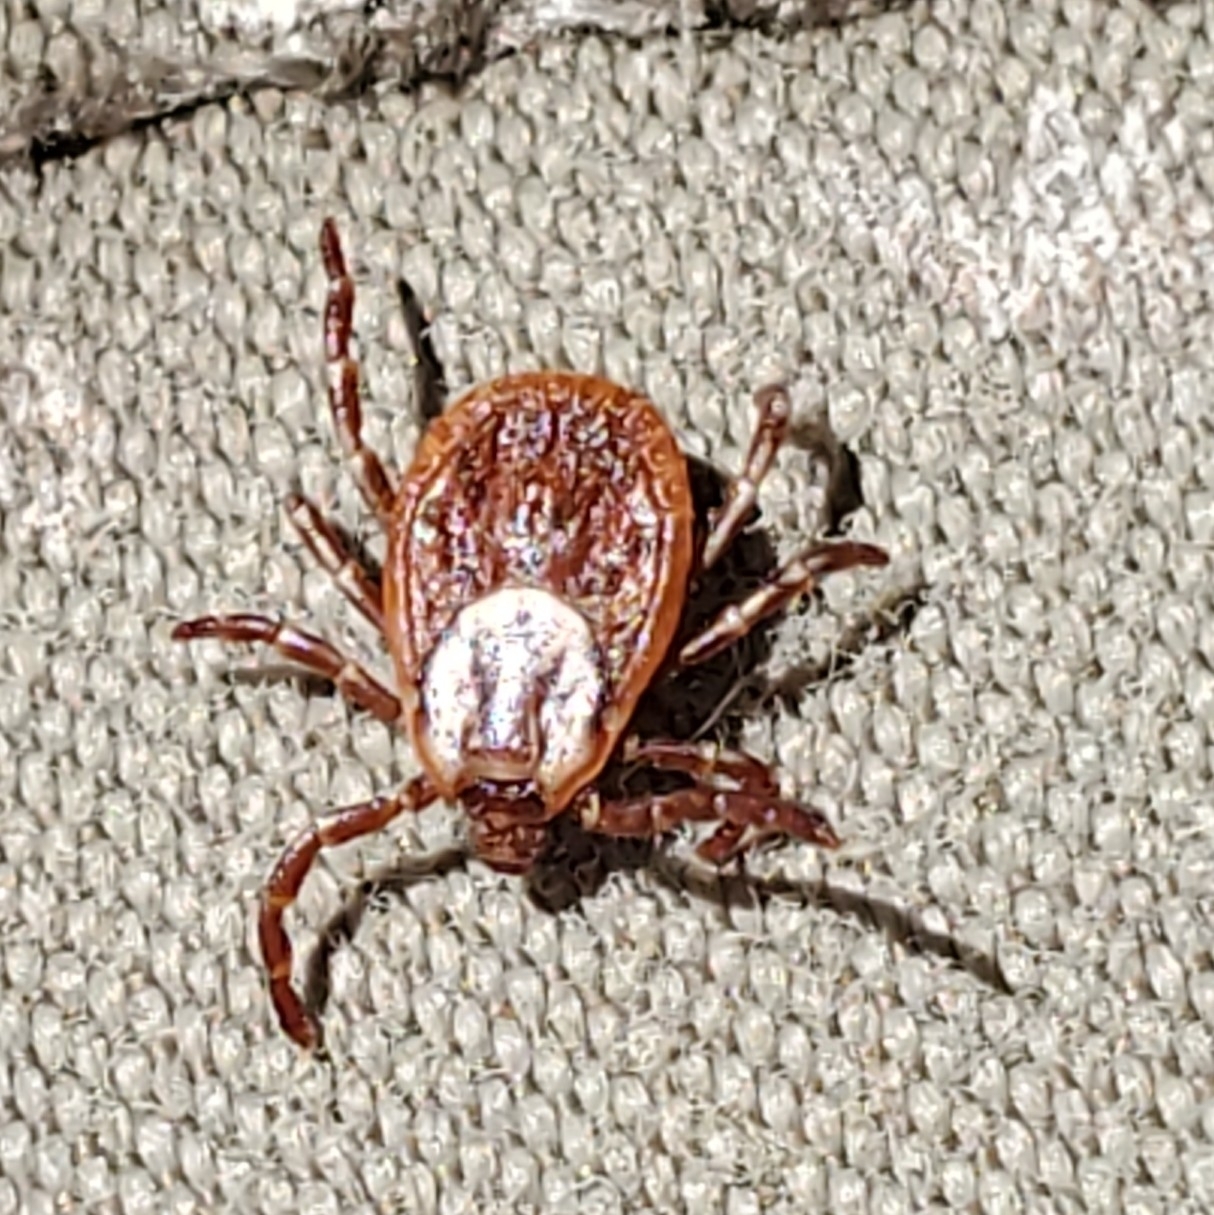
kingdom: Animalia
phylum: Arthropoda
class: Arachnida
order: Ixodida
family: Ixodidae
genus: Dermacentor
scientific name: Dermacentor variabilis
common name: American dog tick
